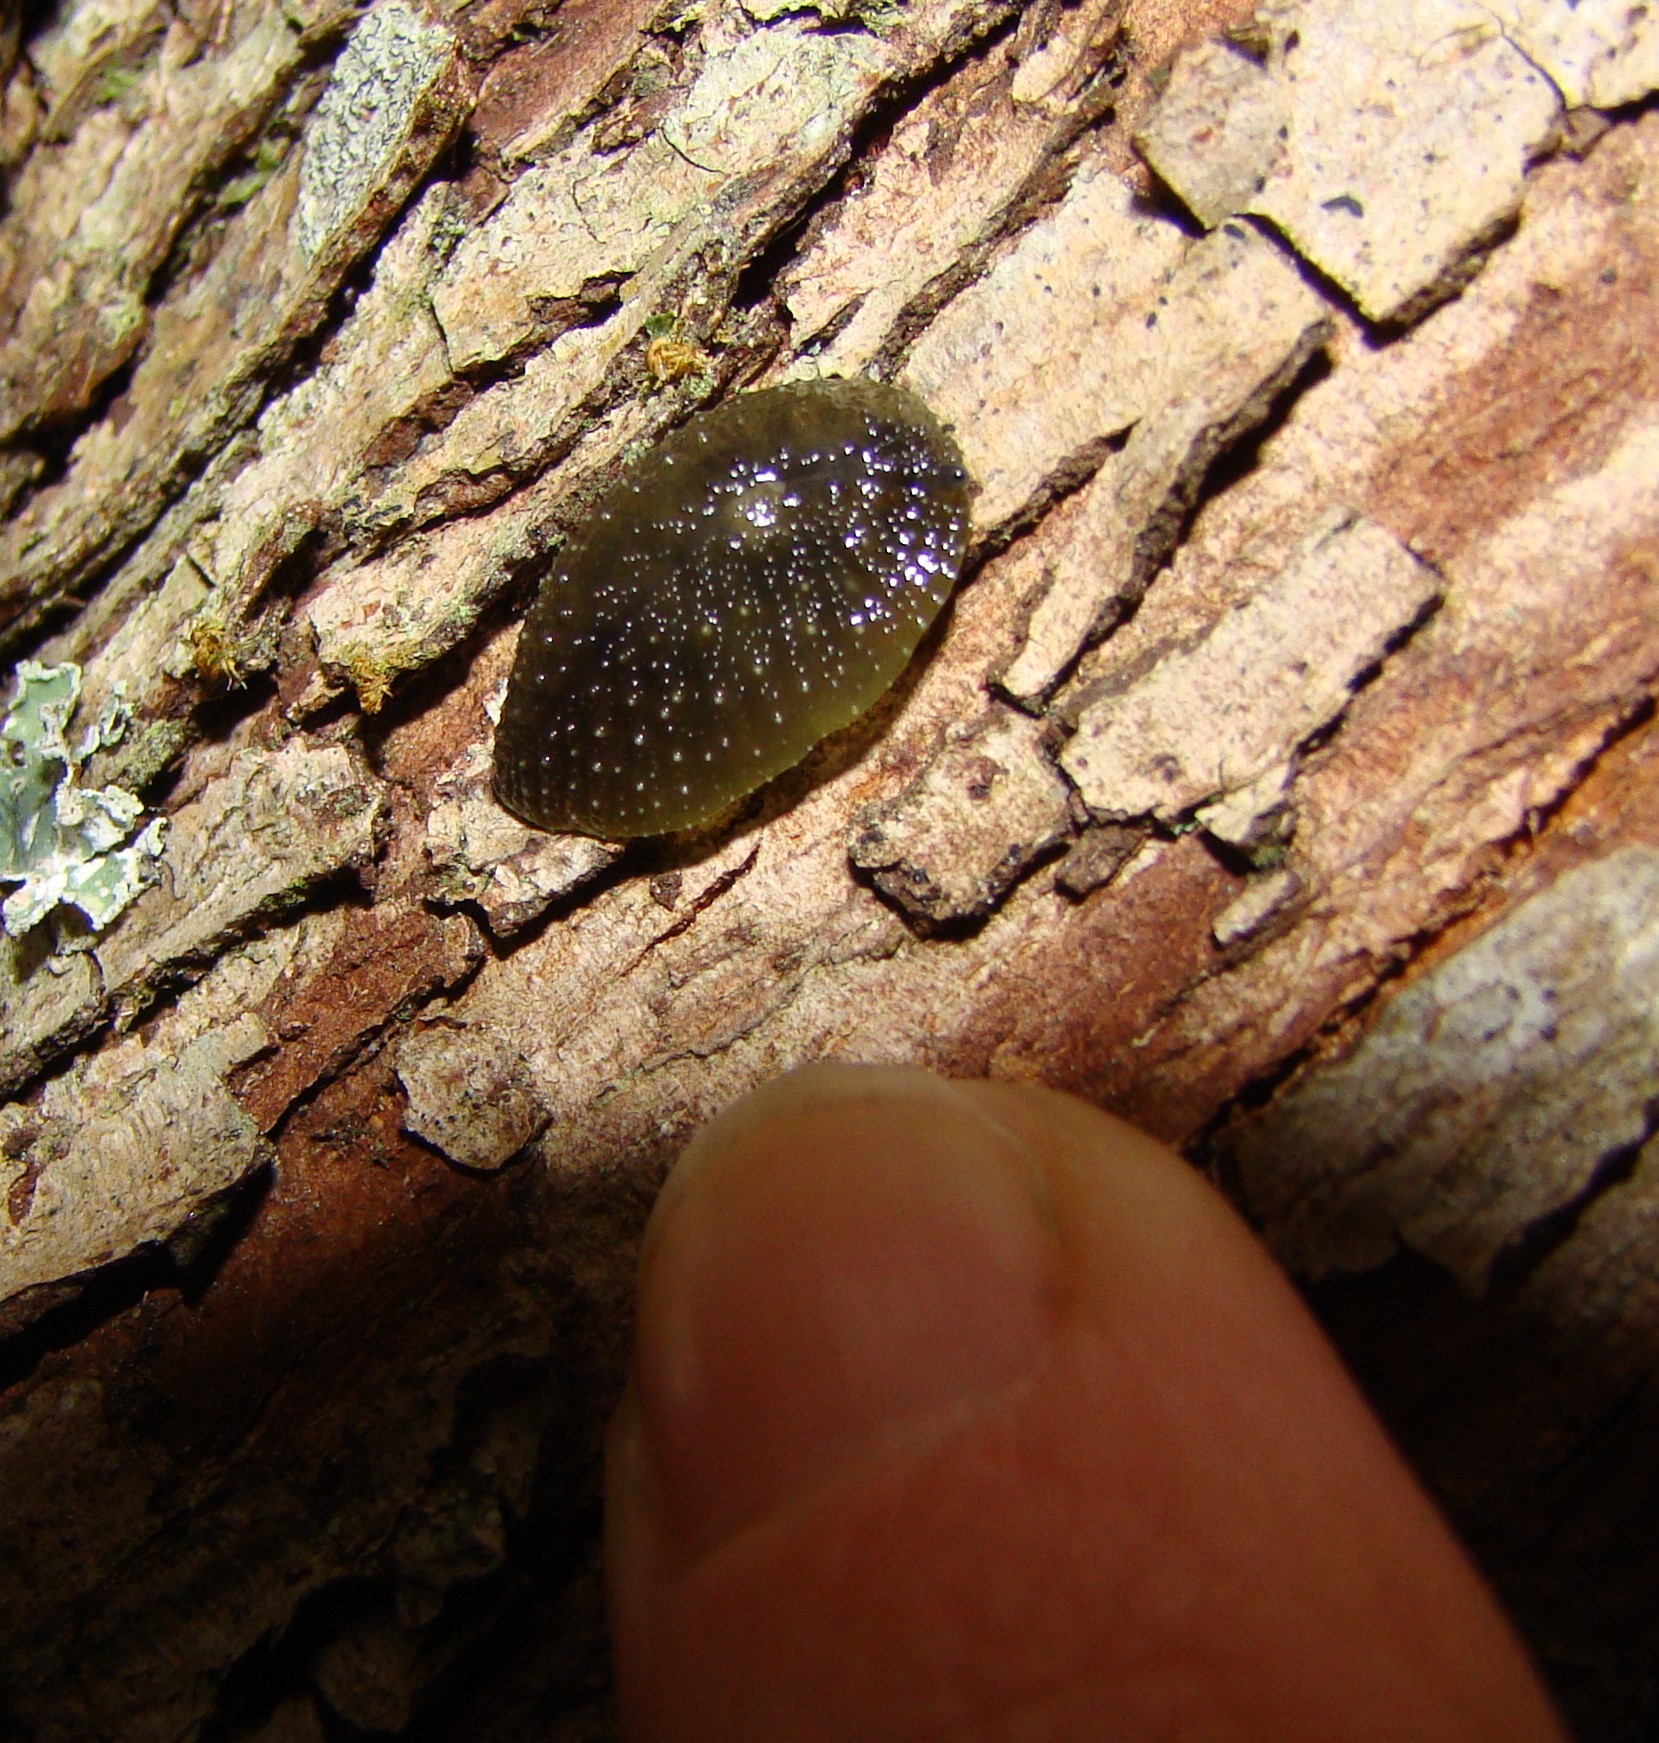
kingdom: Animalia
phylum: Mollusca
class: Gastropoda
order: Stylommatophora
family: Athoracophoridae
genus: Athoracophorus
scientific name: Athoracophorus papillatus
